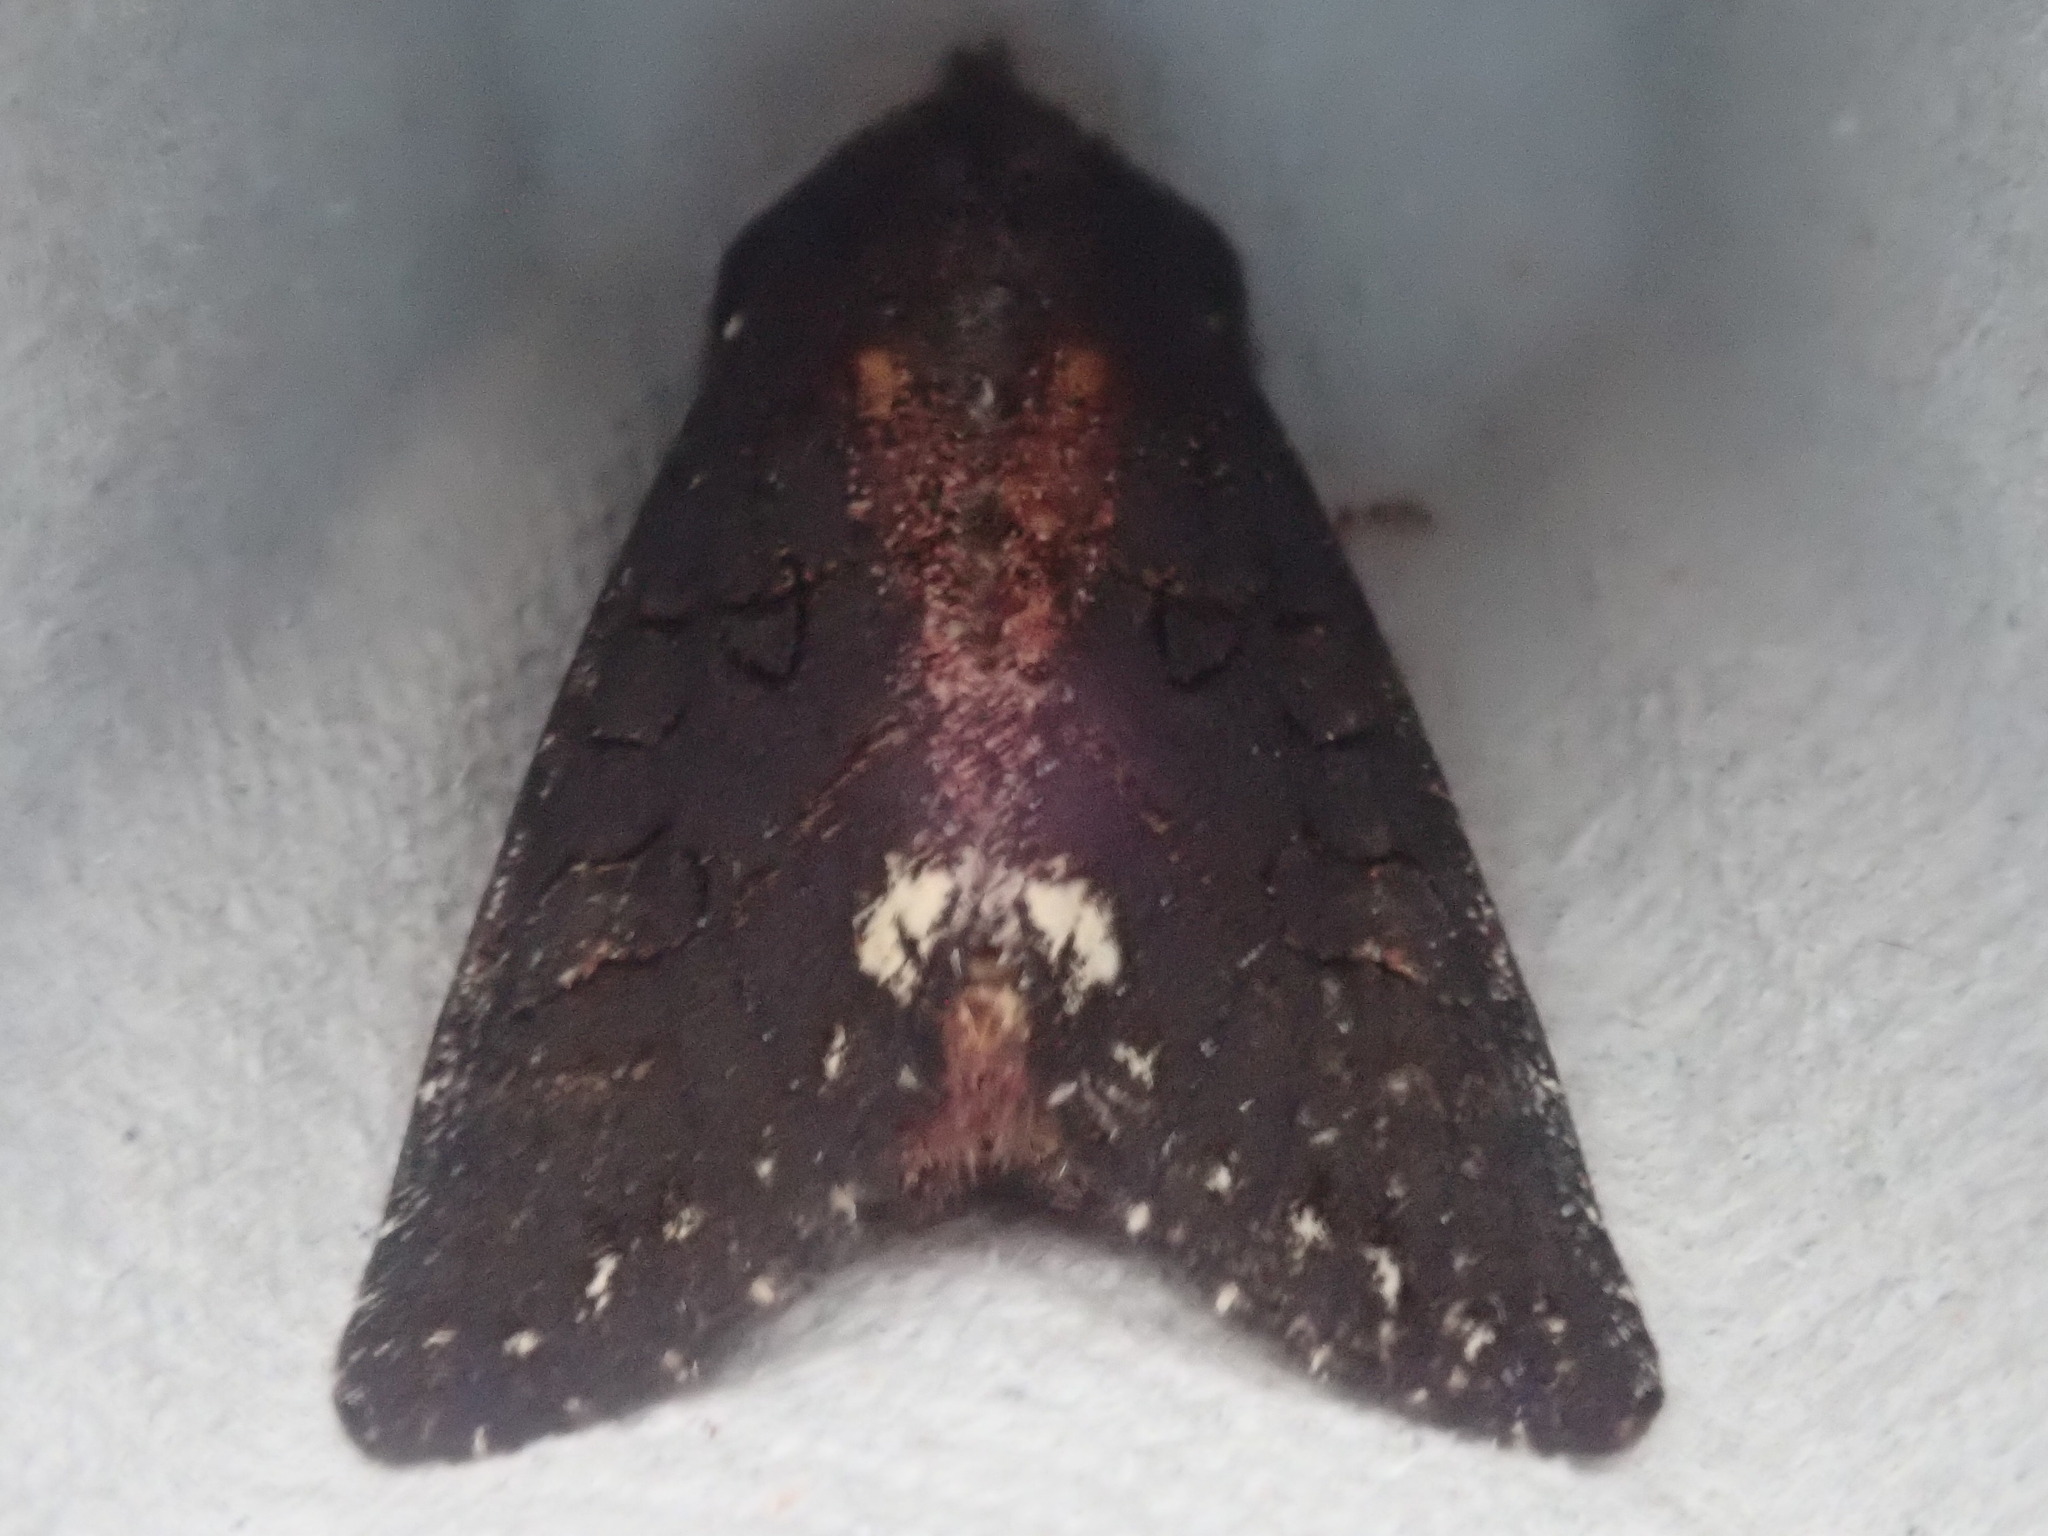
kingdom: Animalia
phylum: Arthropoda
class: Insecta
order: Lepidoptera
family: Noctuidae
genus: Melanchra
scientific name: Melanchra assimilis
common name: Black arches
